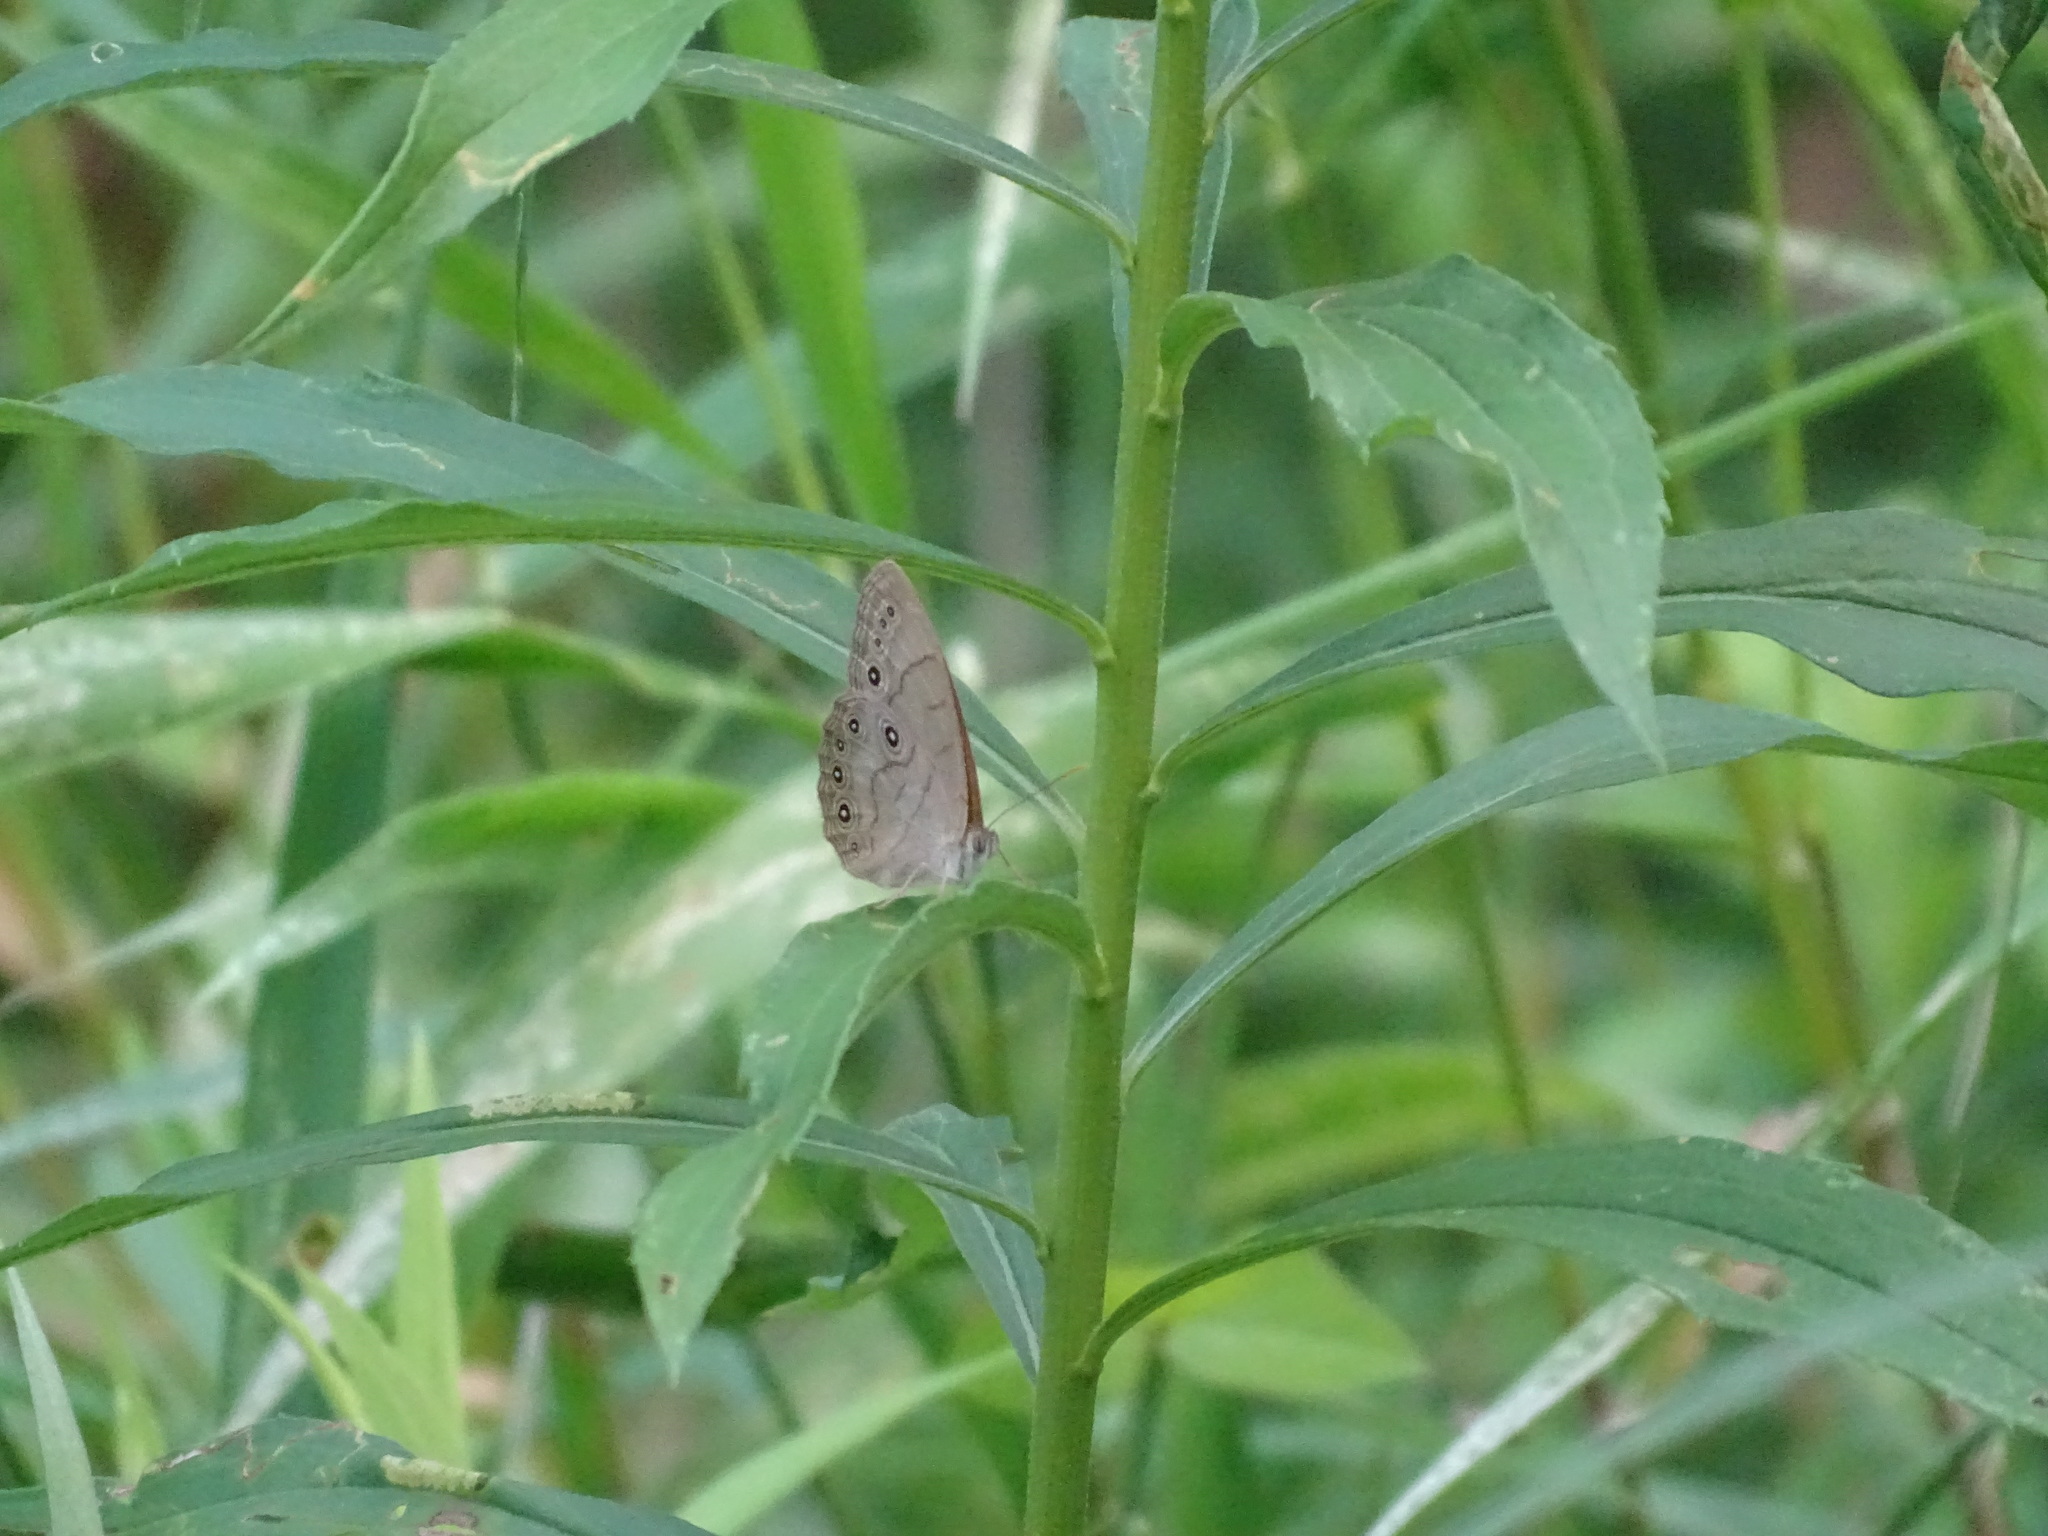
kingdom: Animalia
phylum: Arthropoda
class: Insecta
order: Lepidoptera
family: Nymphalidae
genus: Lethe
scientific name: Lethe eurydice
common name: Eyed brown
